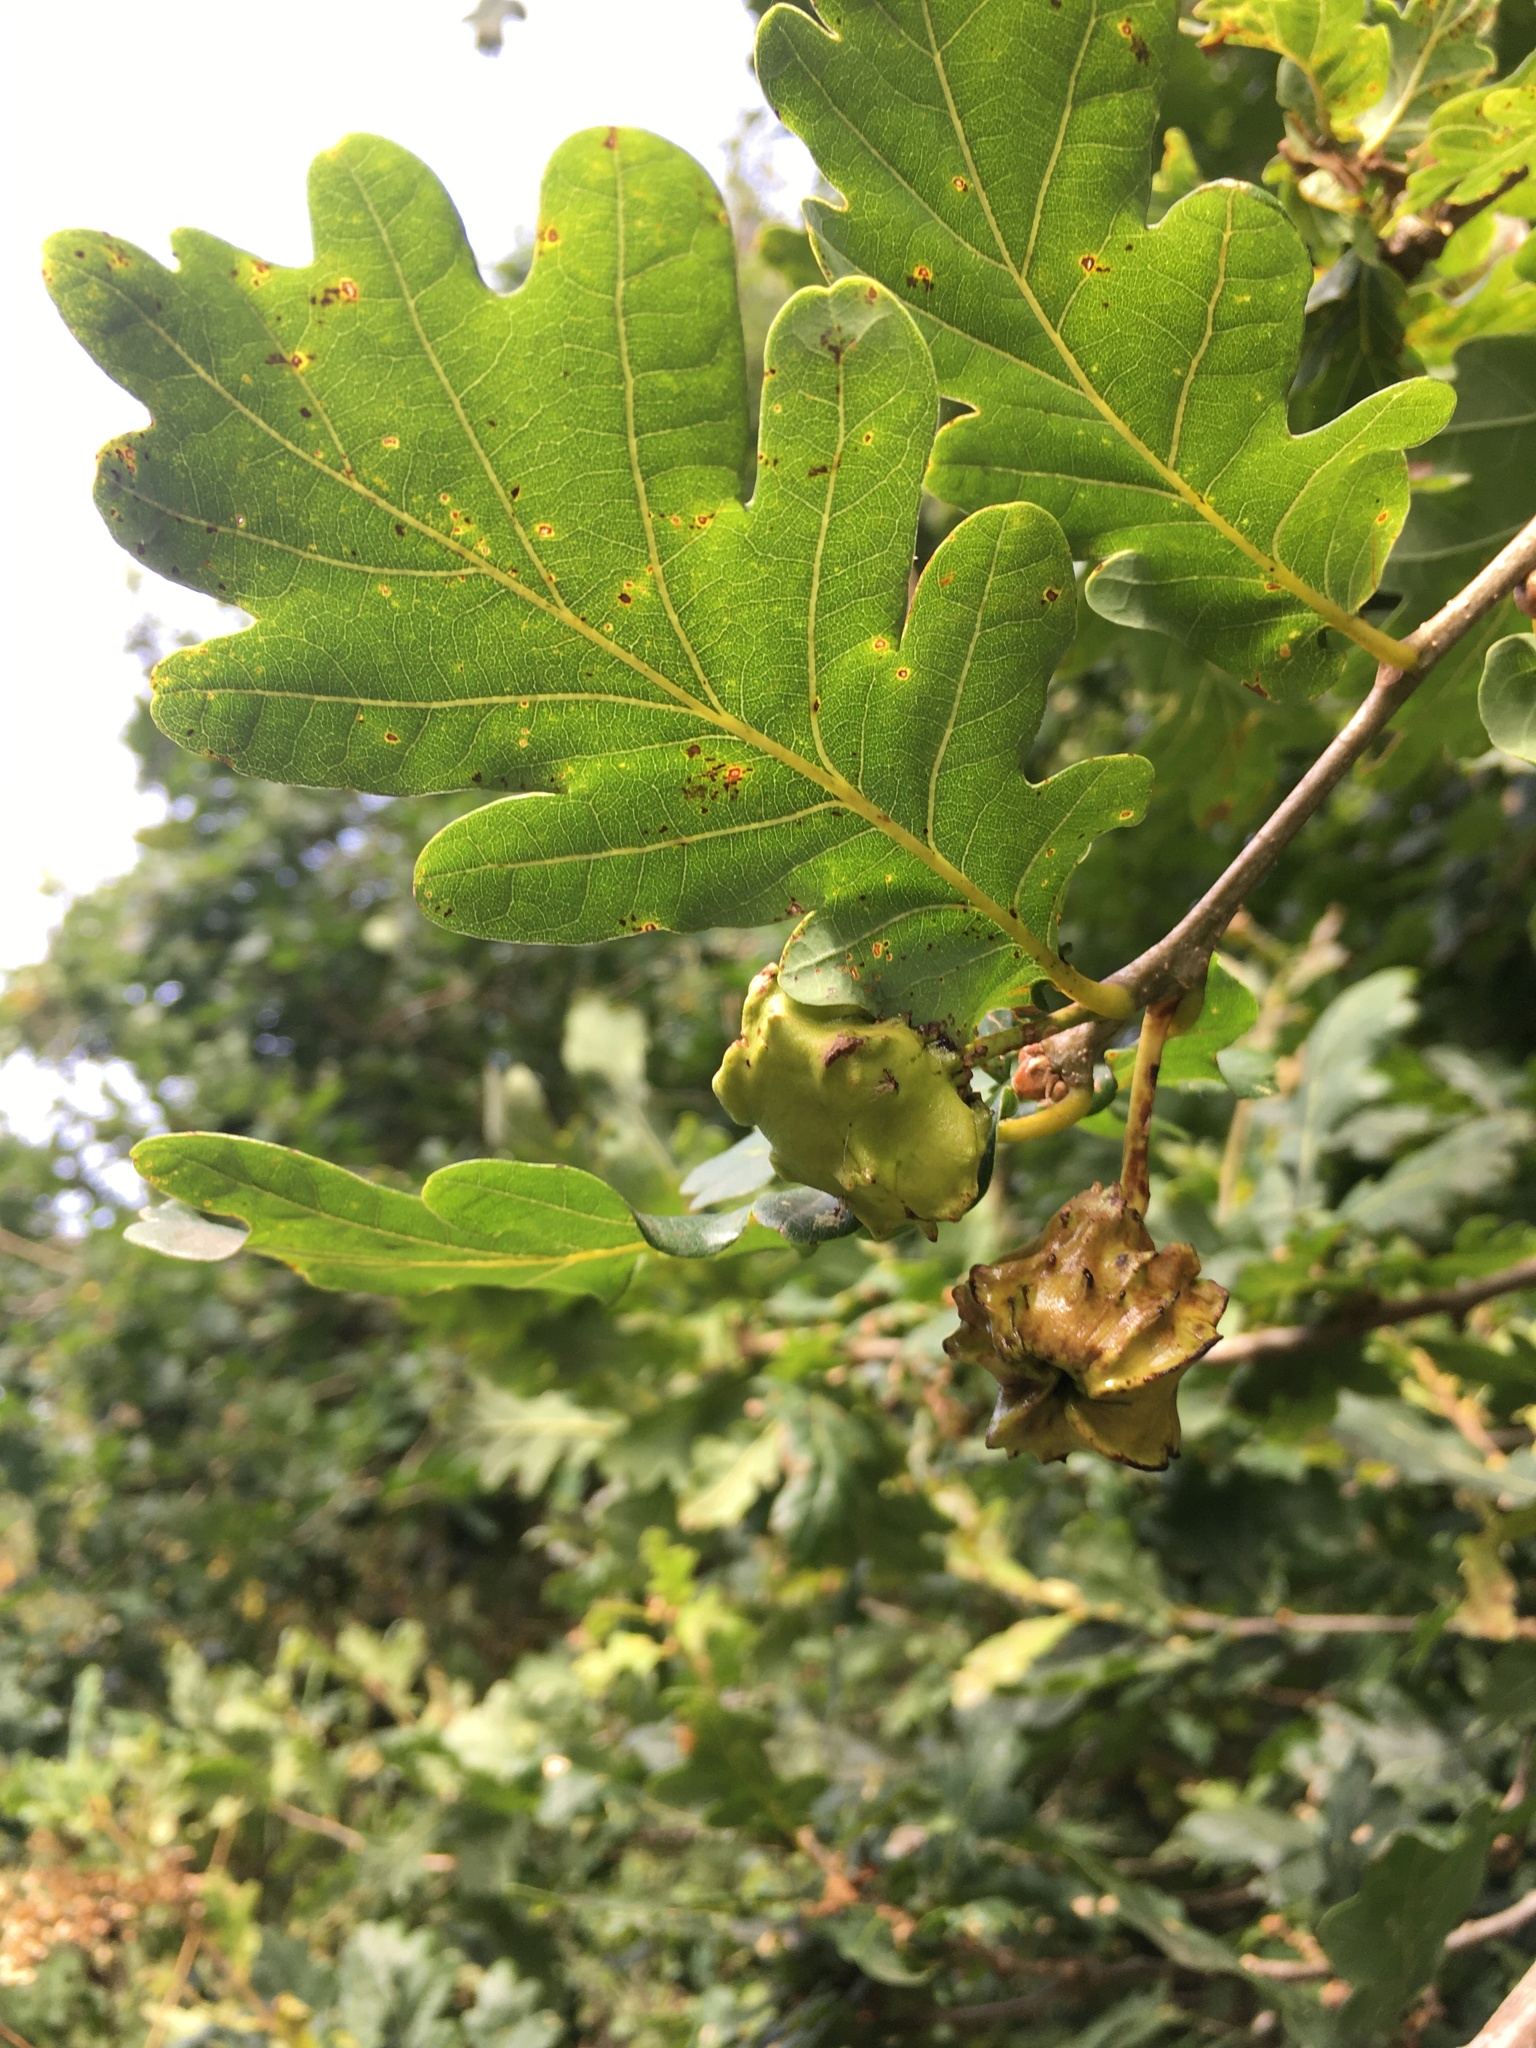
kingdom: Animalia
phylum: Arthropoda
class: Insecta
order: Hymenoptera
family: Cynipidae
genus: Andricus
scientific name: Andricus quercuscalicis
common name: Knopper gall
